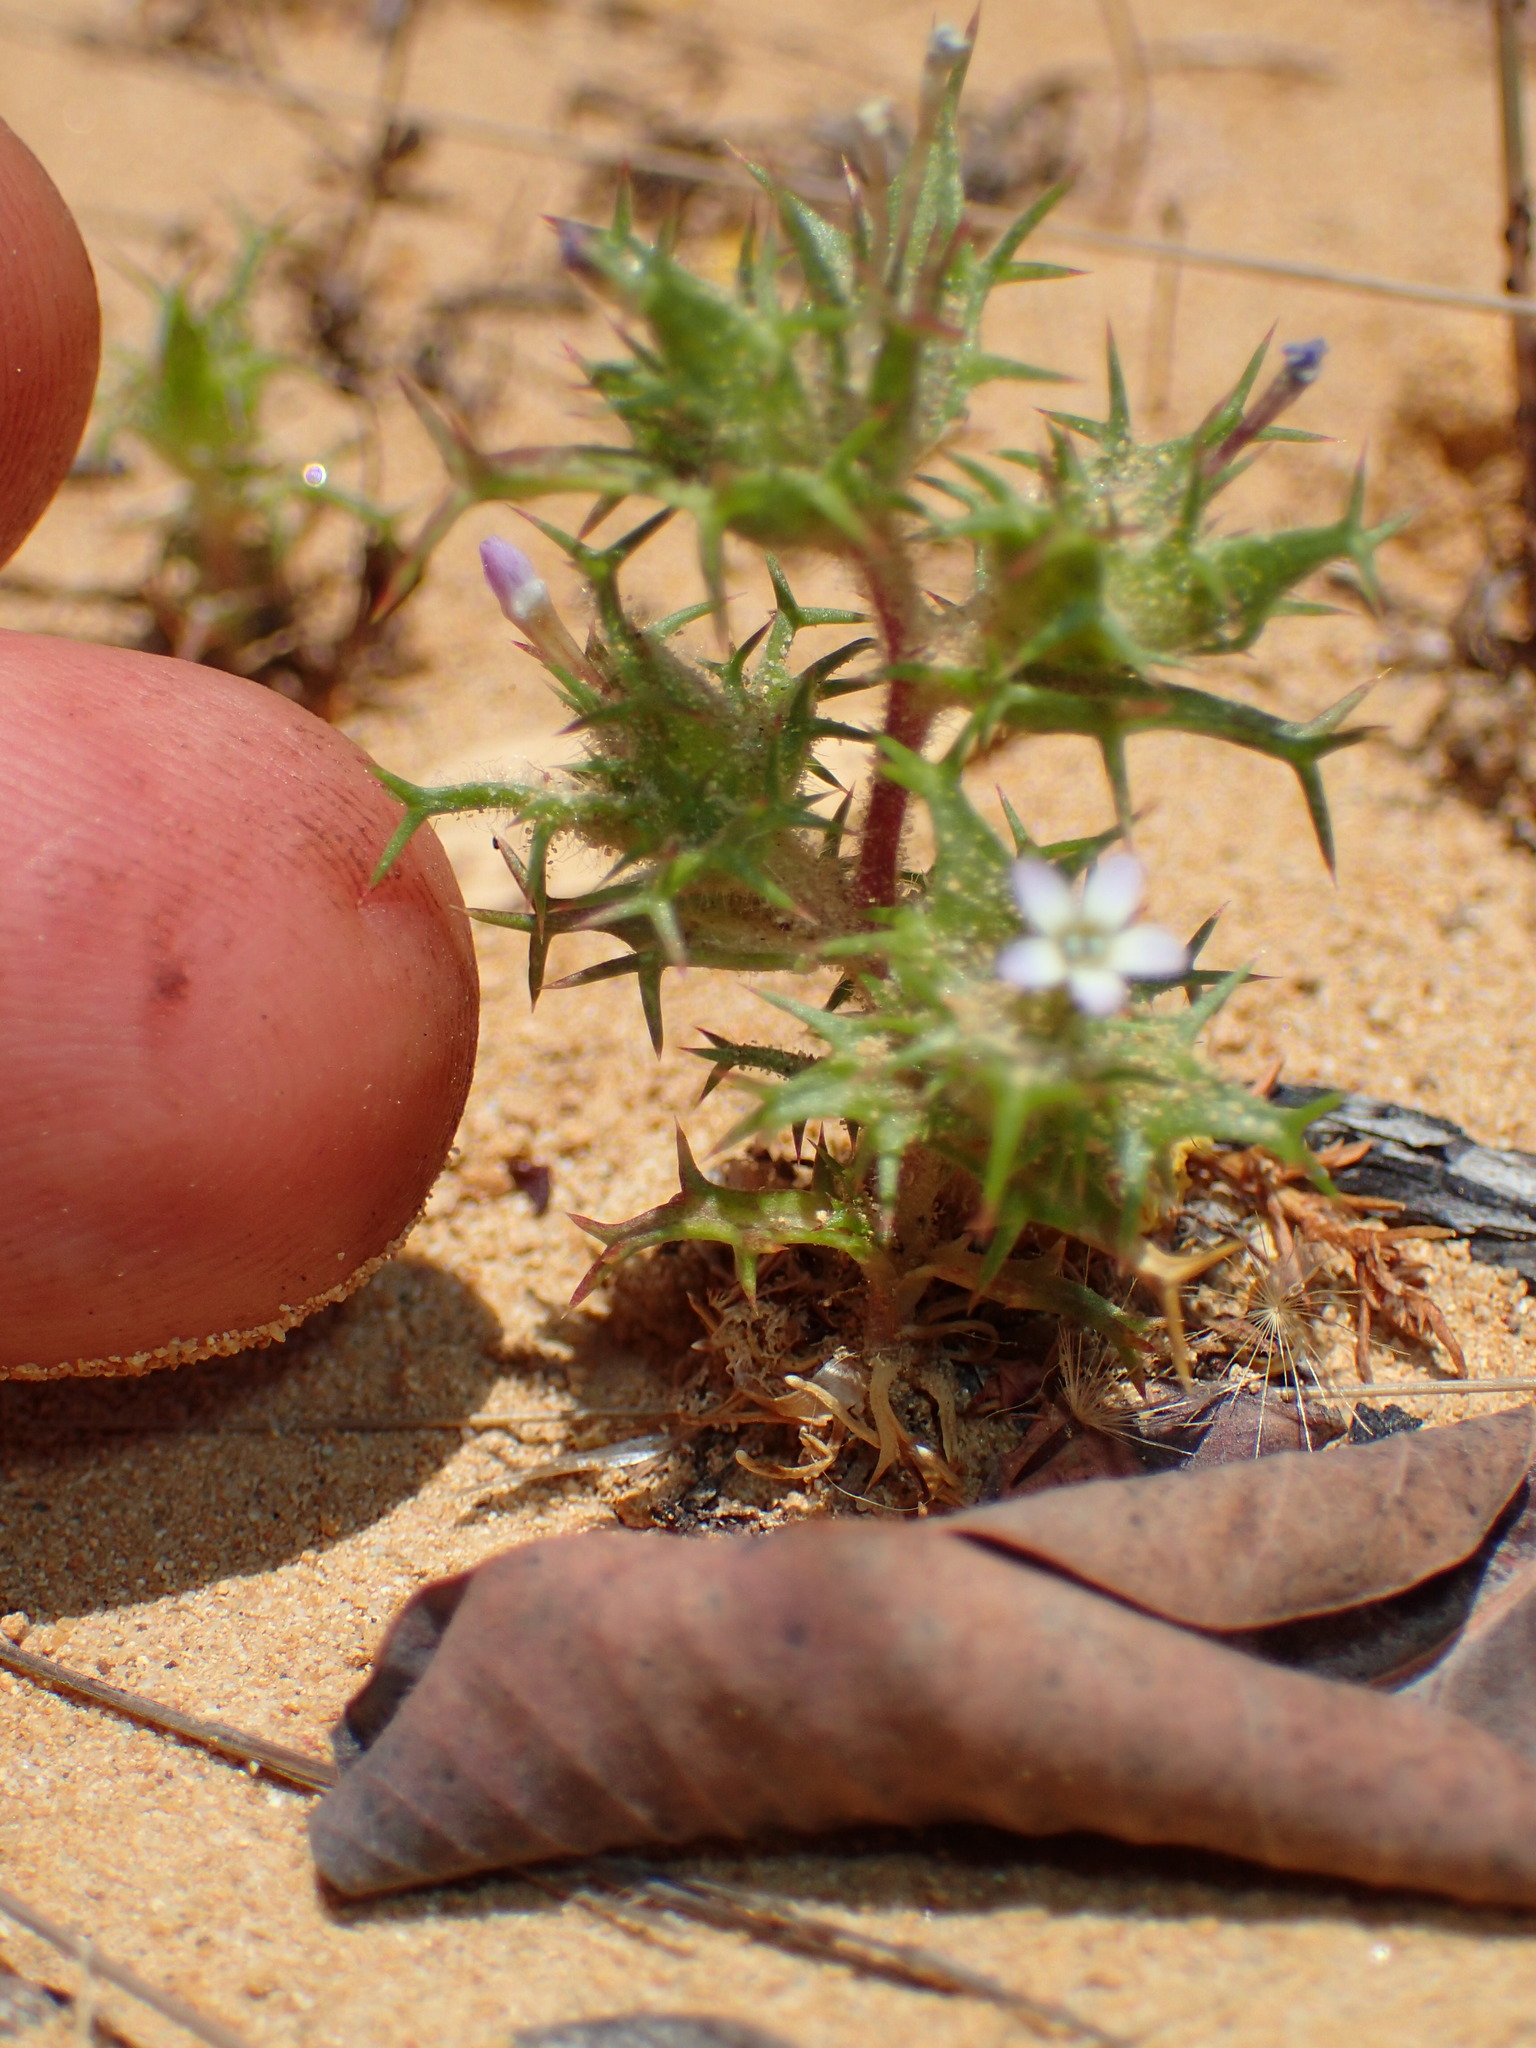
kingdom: Plantae
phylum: Tracheophyta
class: Magnoliopsida
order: Ericales
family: Polemoniaceae
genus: Navarretia
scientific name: Navarretia hamata
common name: Hooked navarretia
